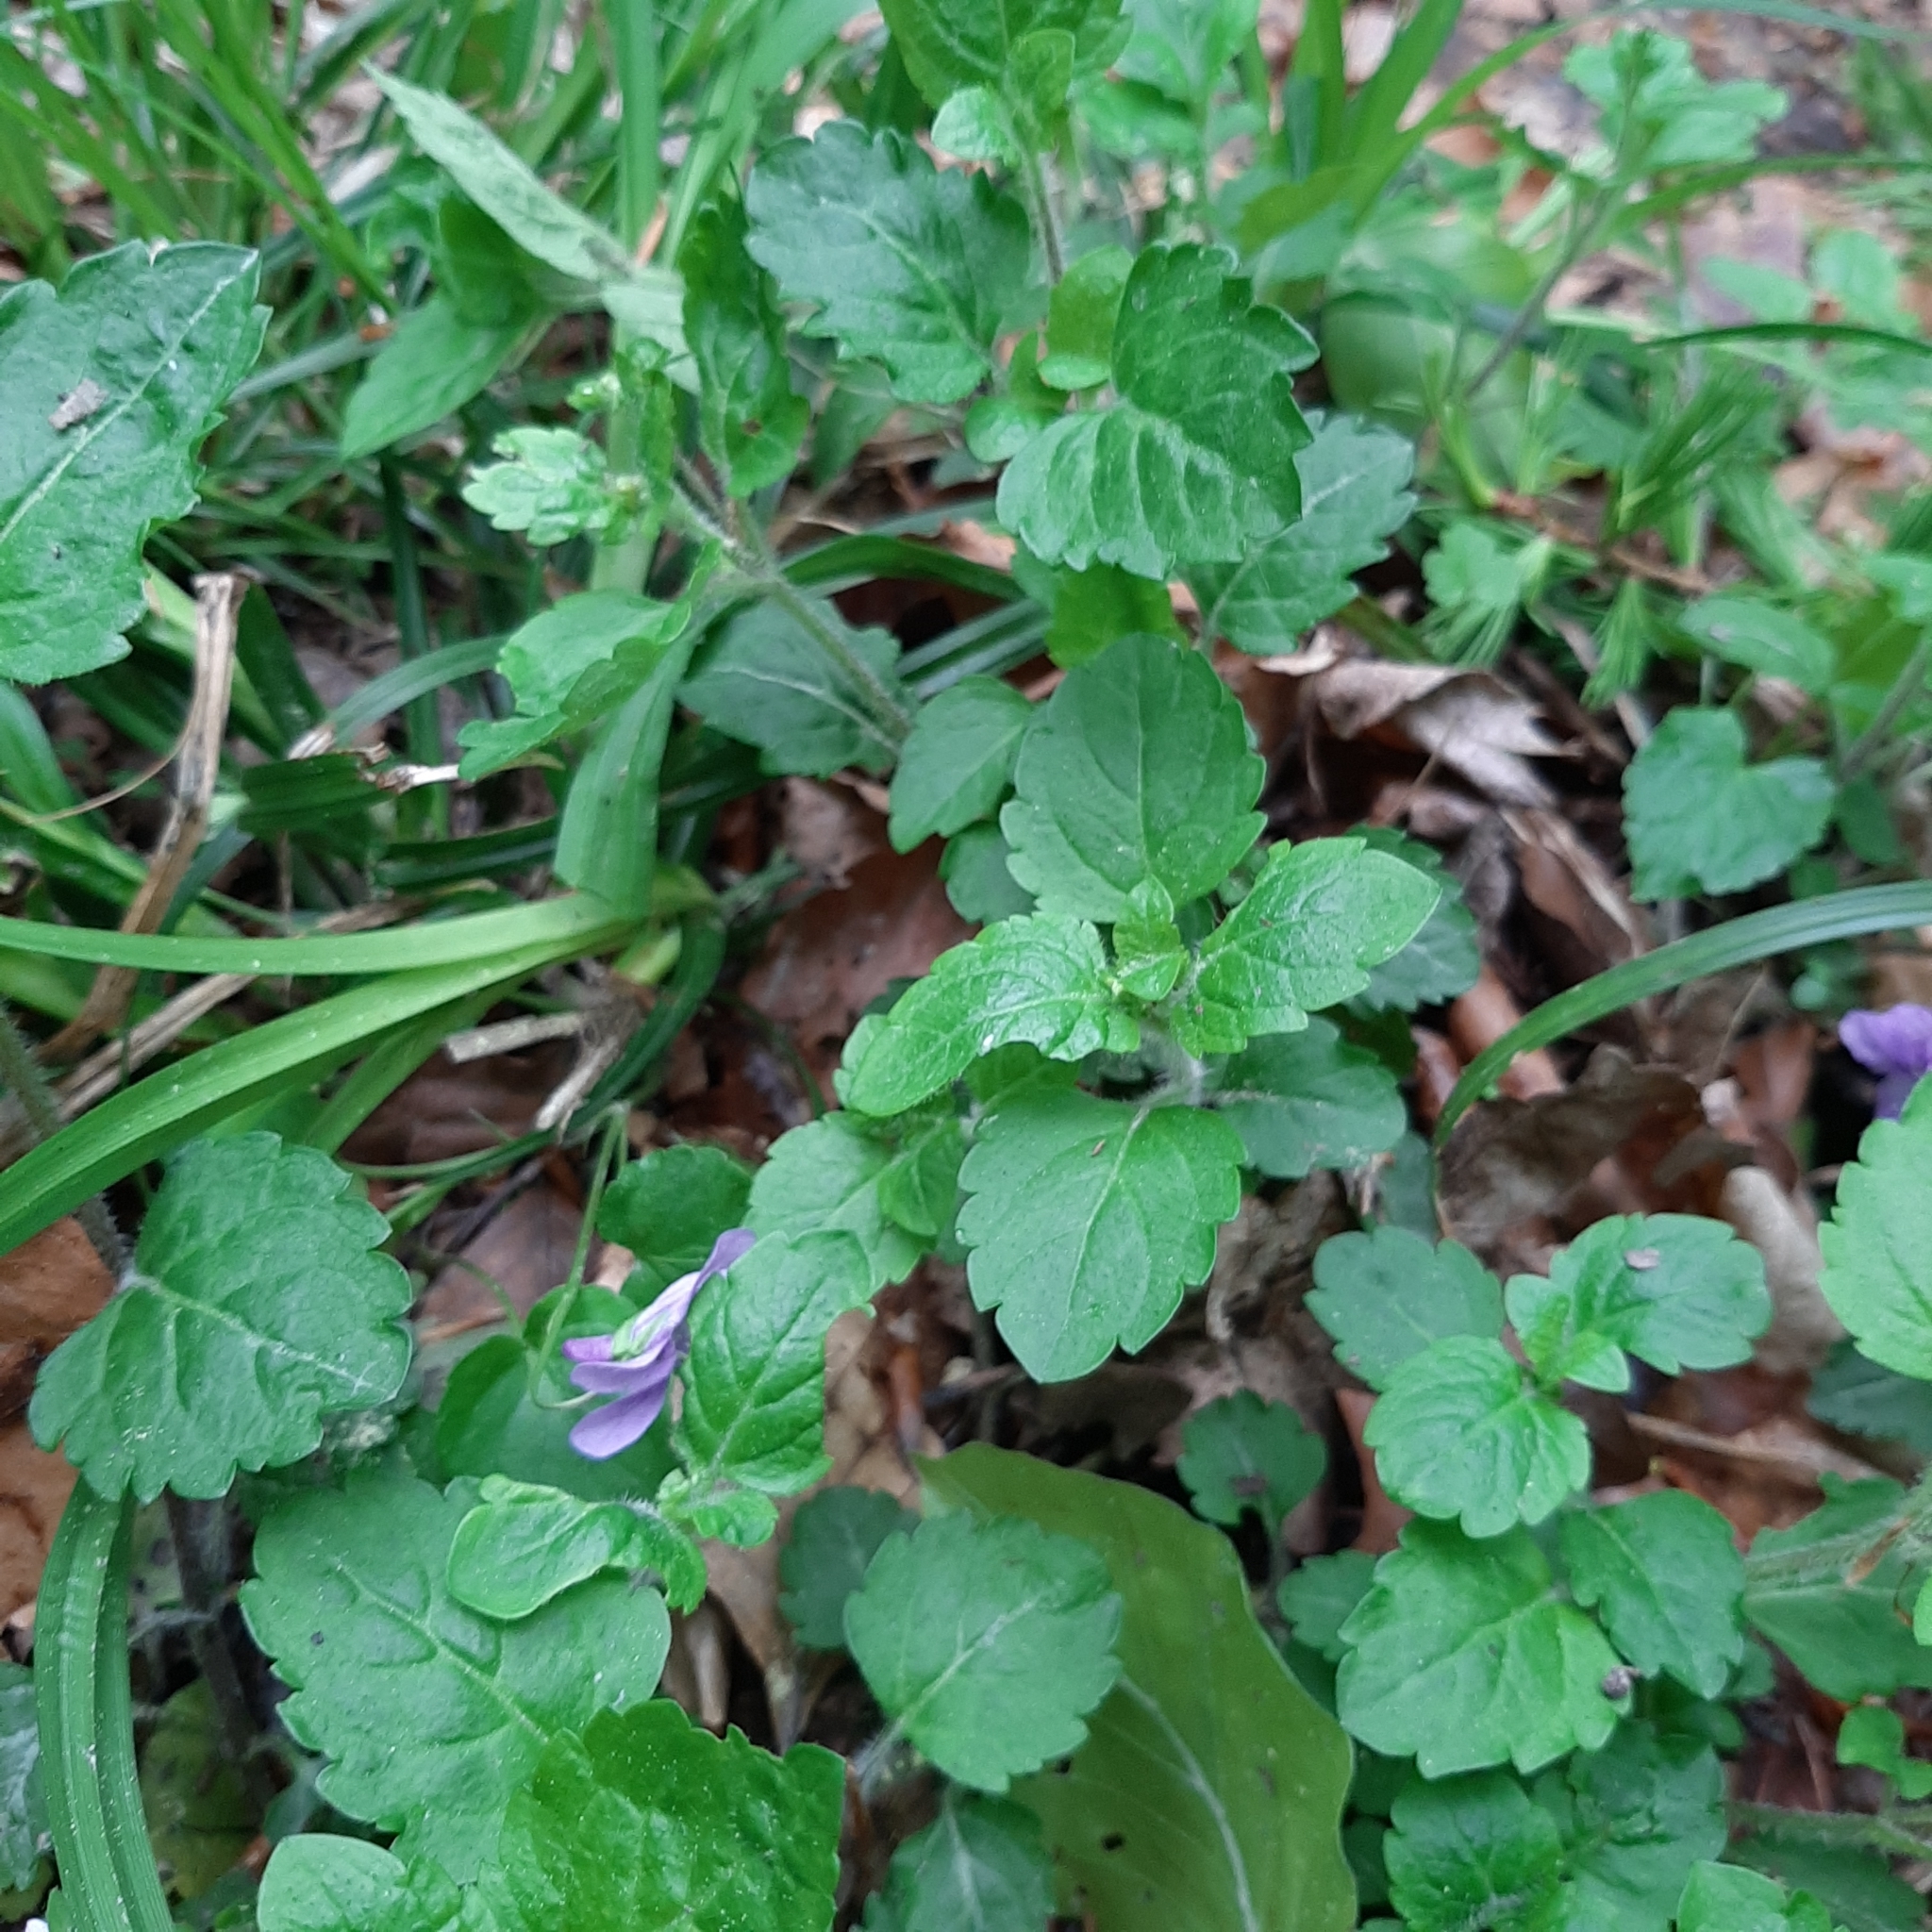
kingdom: Plantae
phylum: Tracheophyta
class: Magnoliopsida
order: Lamiales
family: Plantaginaceae
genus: Veronica
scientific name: Veronica montana
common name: Wood speedwell
